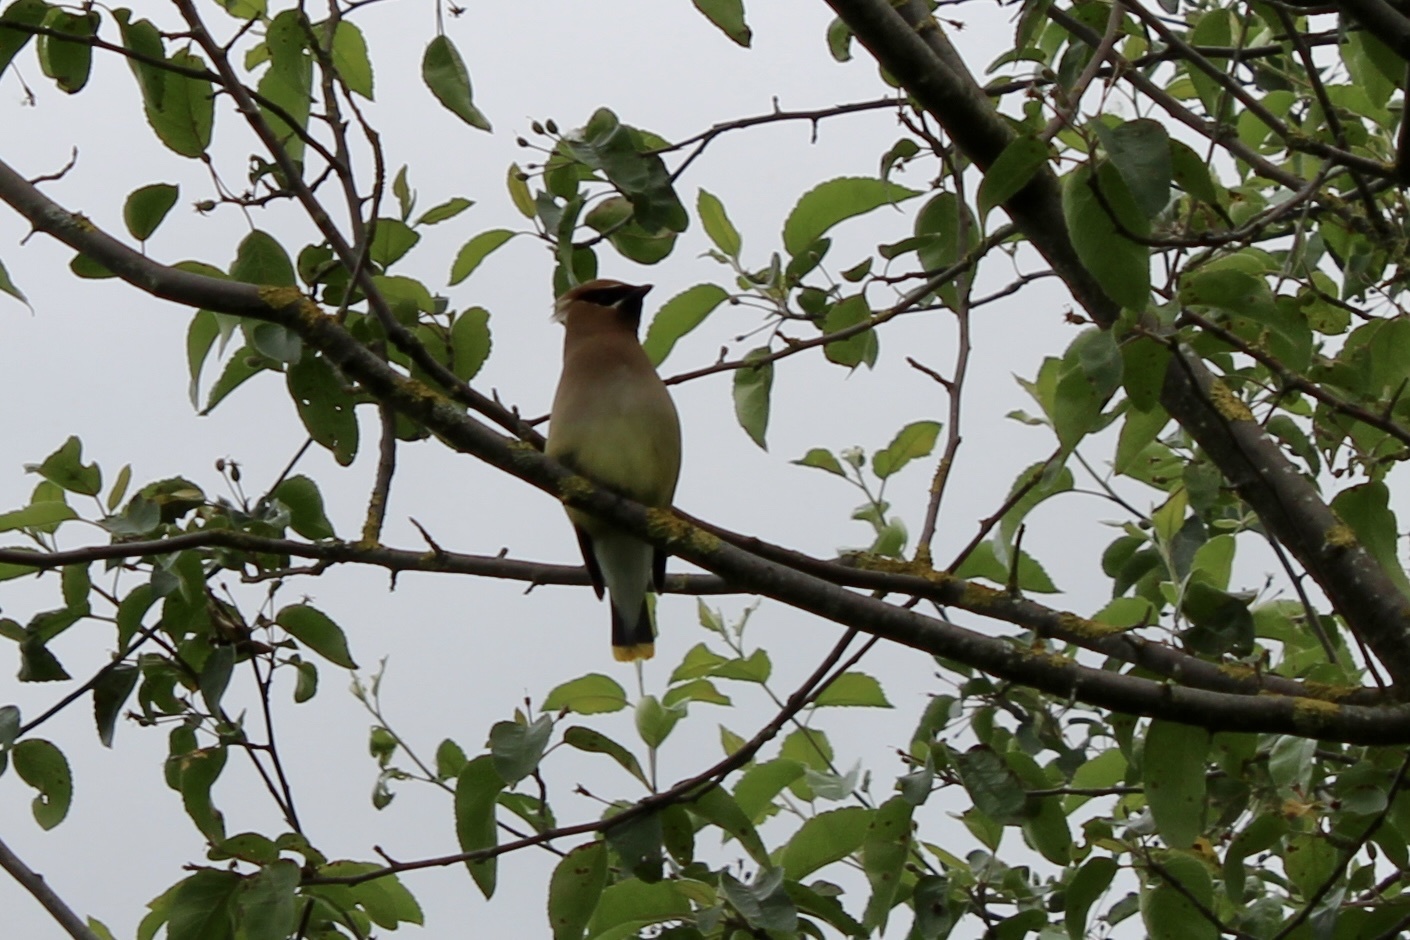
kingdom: Animalia
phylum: Chordata
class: Aves
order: Passeriformes
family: Bombycillidae
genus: Bombycilla
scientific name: Bombycilla cedrorum
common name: Cedar waxwing
